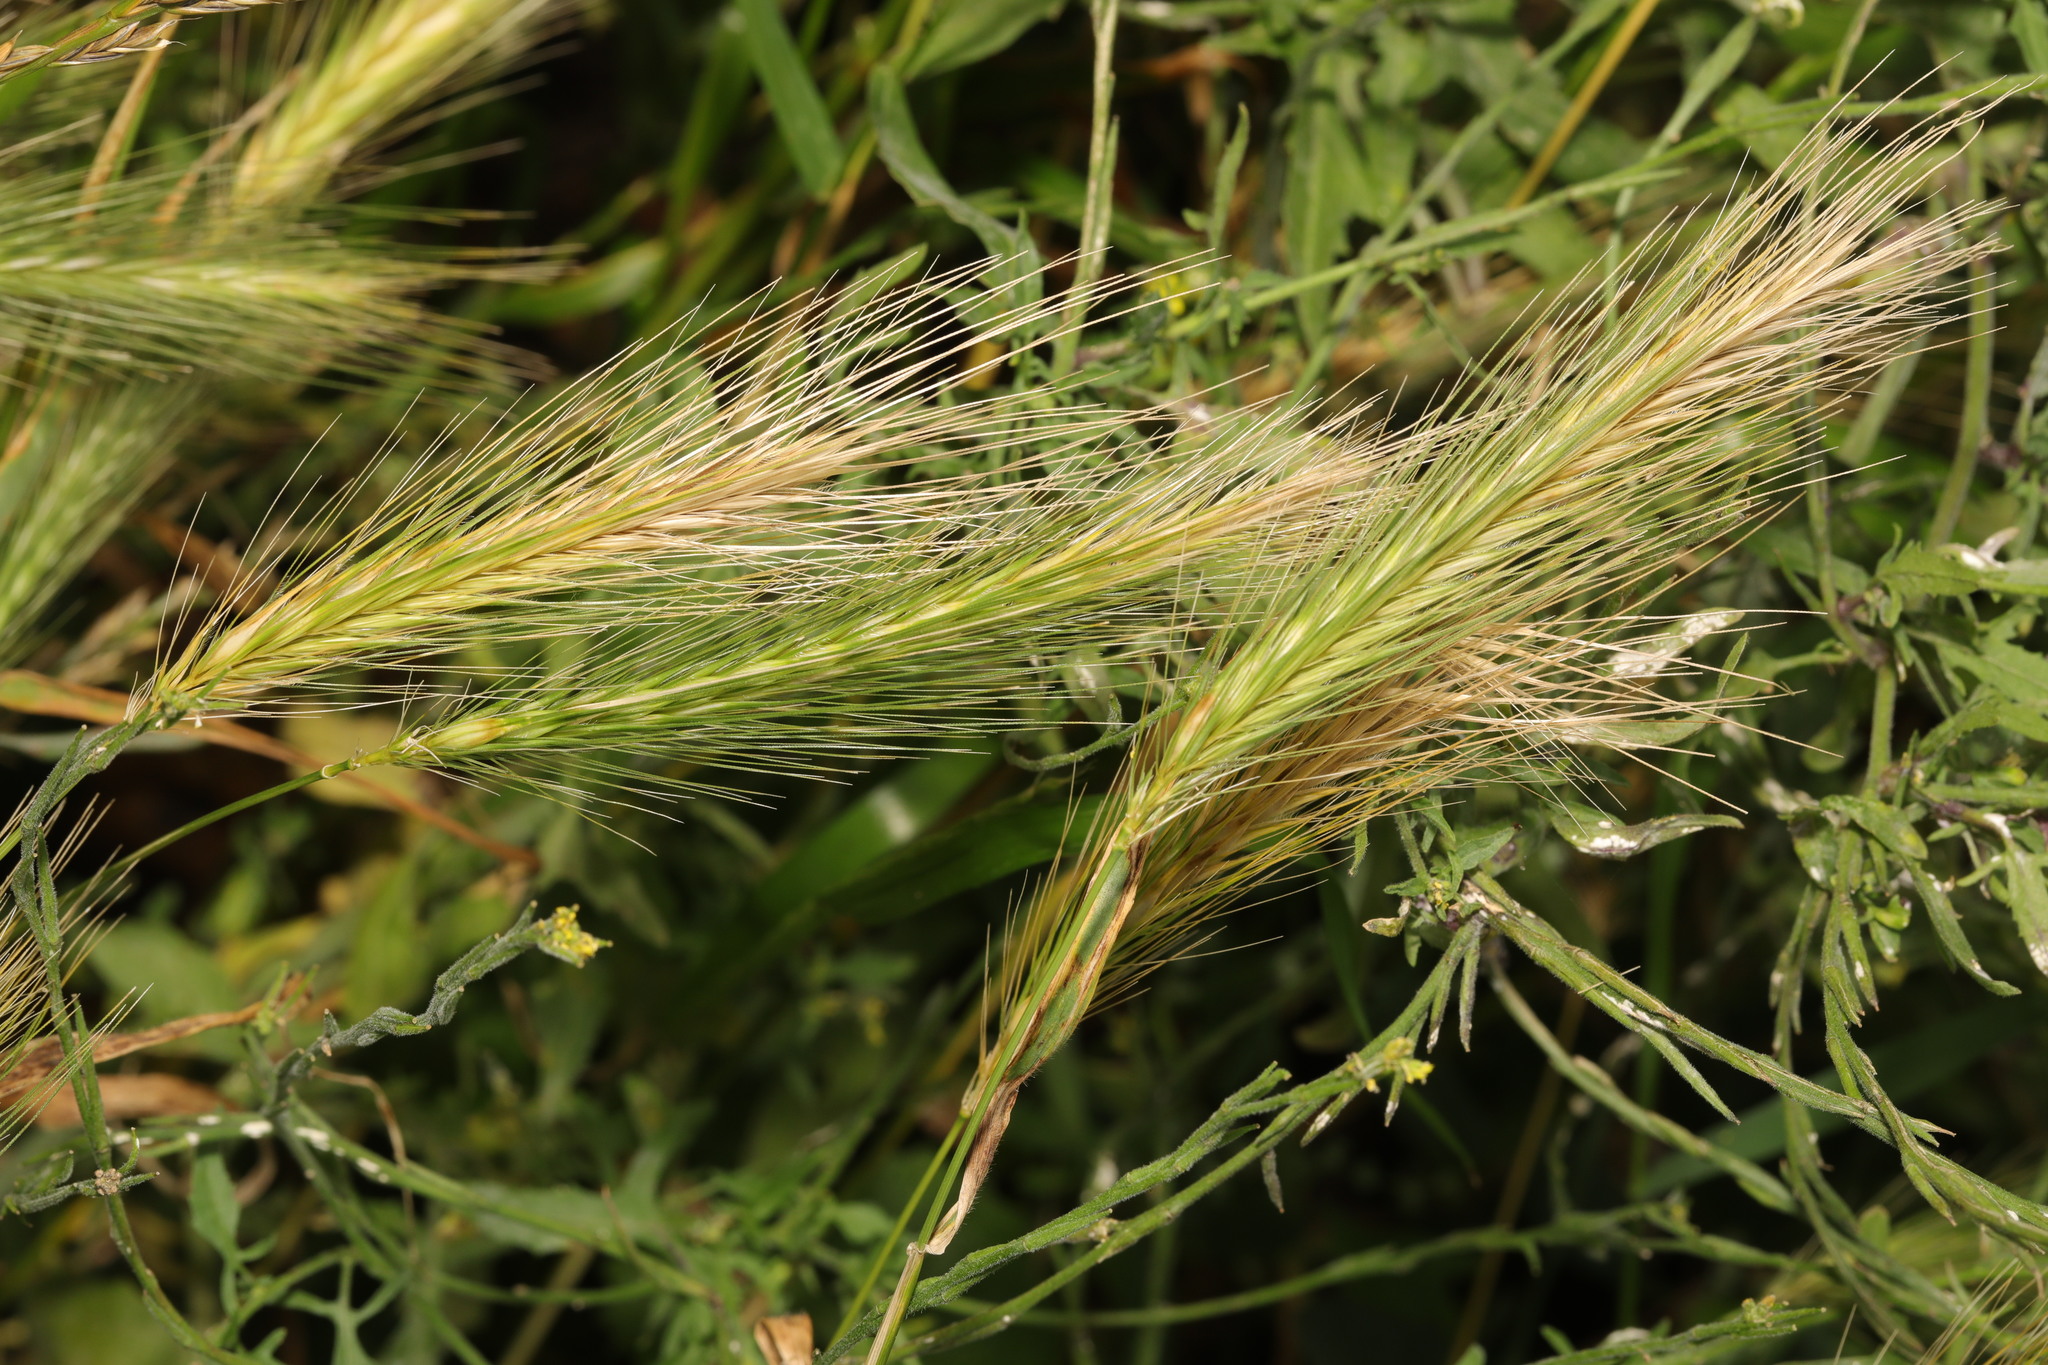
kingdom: Plantae
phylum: Tracheophyta
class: Liliopsida
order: Poales
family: Poaceae
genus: Hordeum
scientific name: Hordeum murinum
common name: Wall barley
